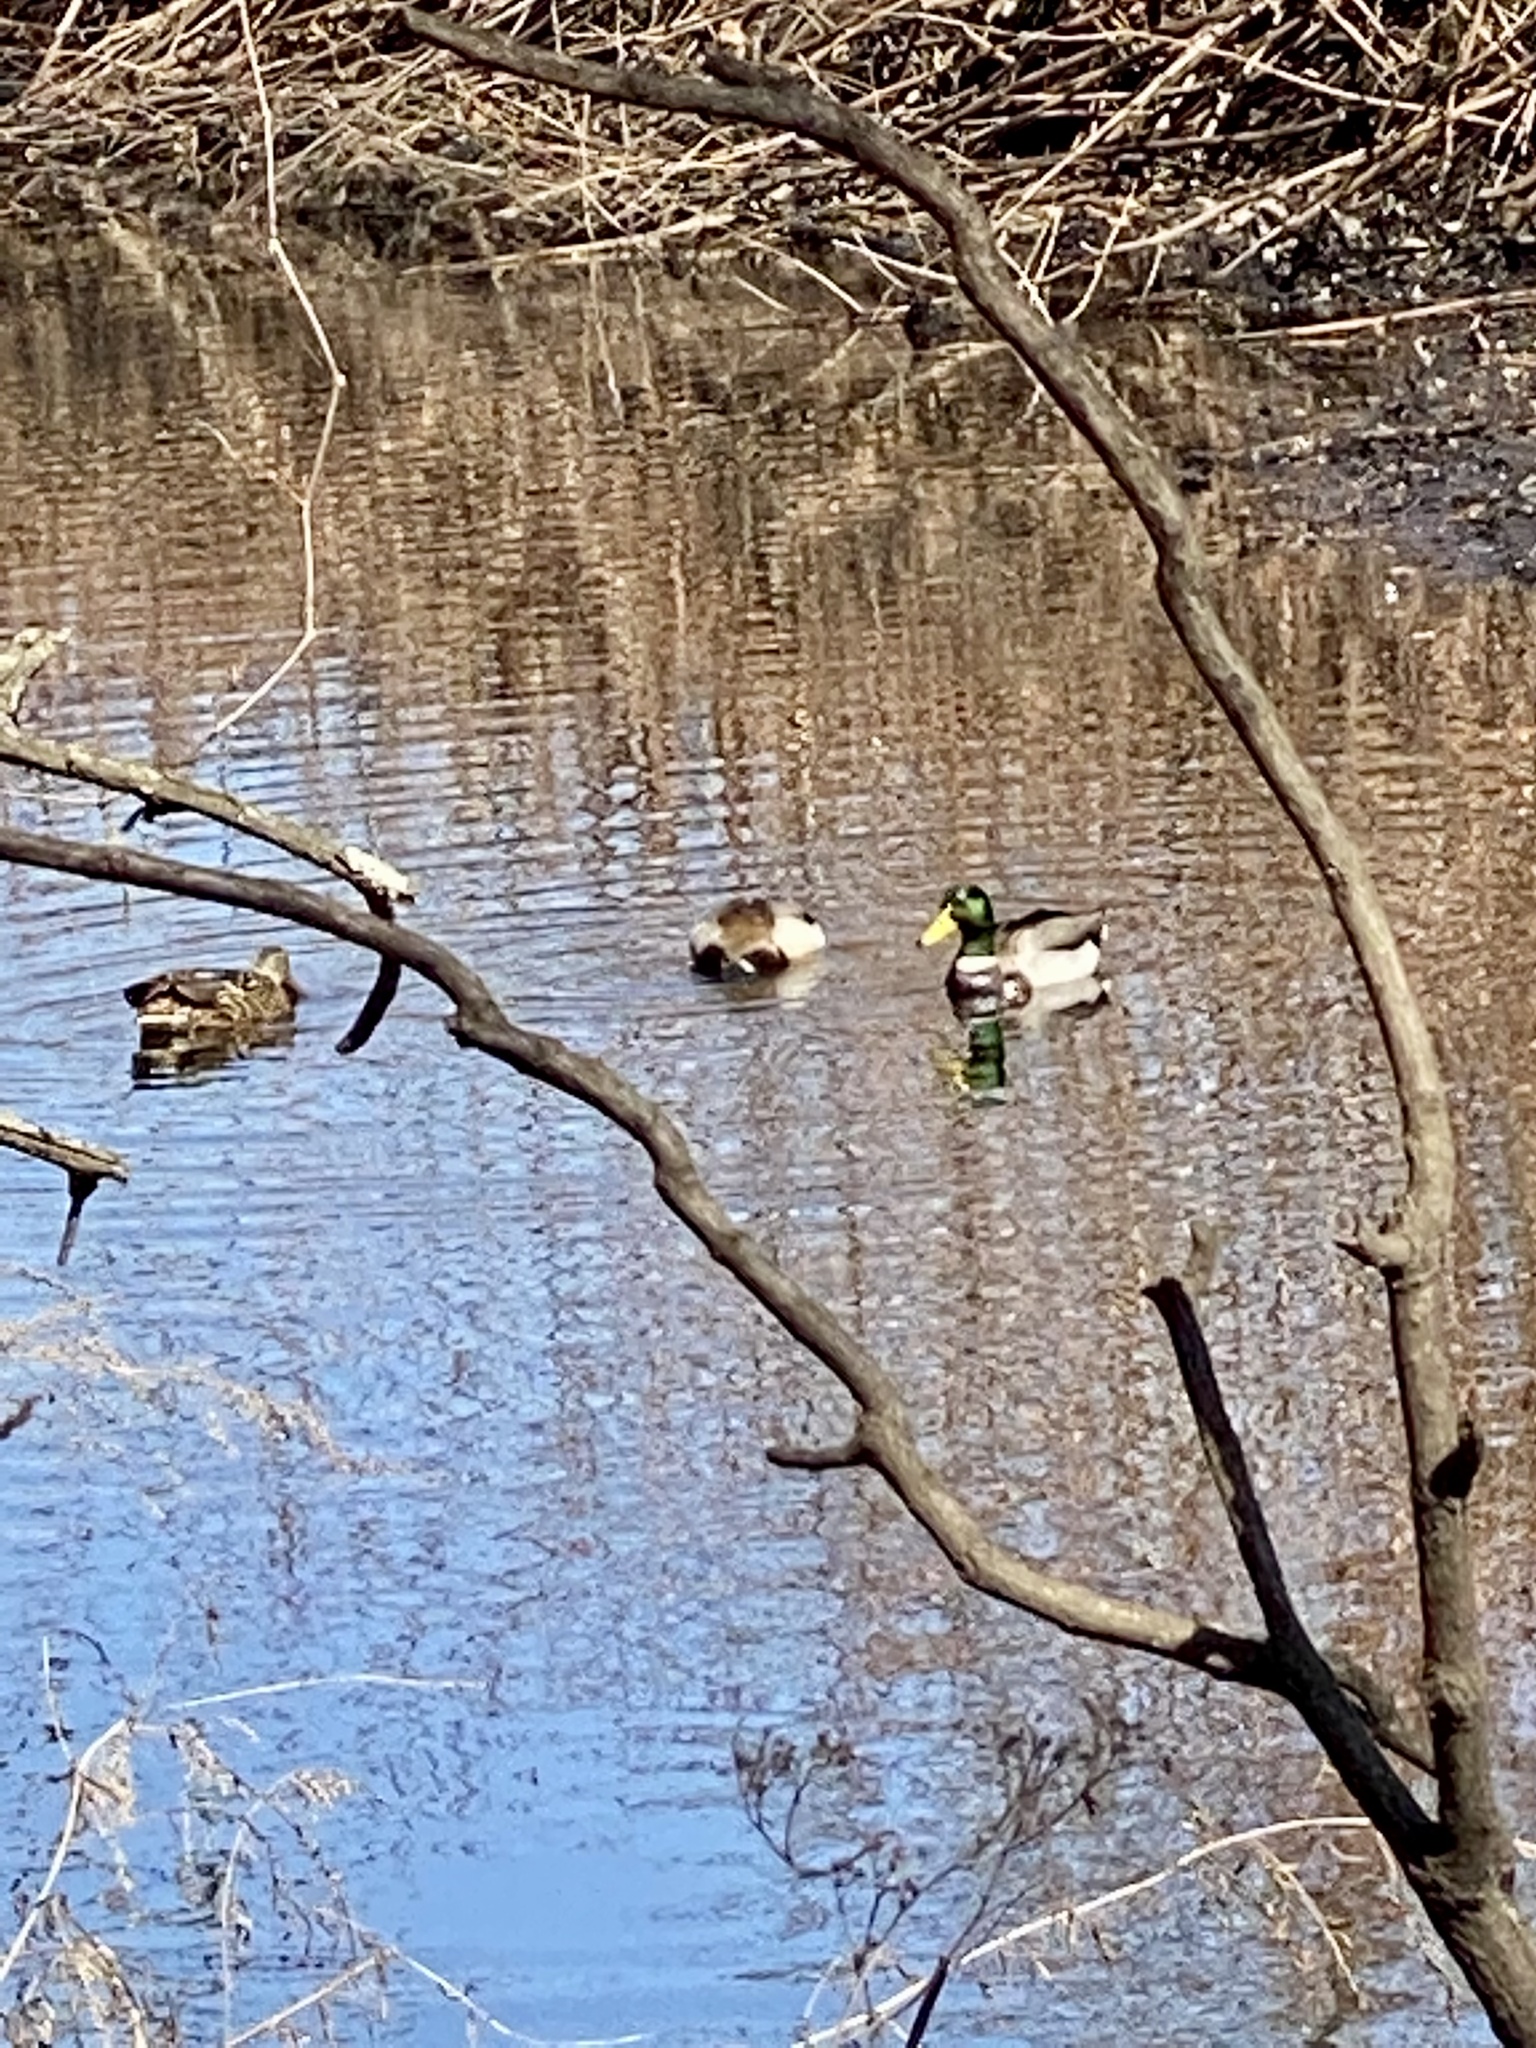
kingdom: Animalia
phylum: Chordata
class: Aves
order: Anseriformes
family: Anatidae
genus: Anas
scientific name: Anas platyrhynchos
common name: Mallard
